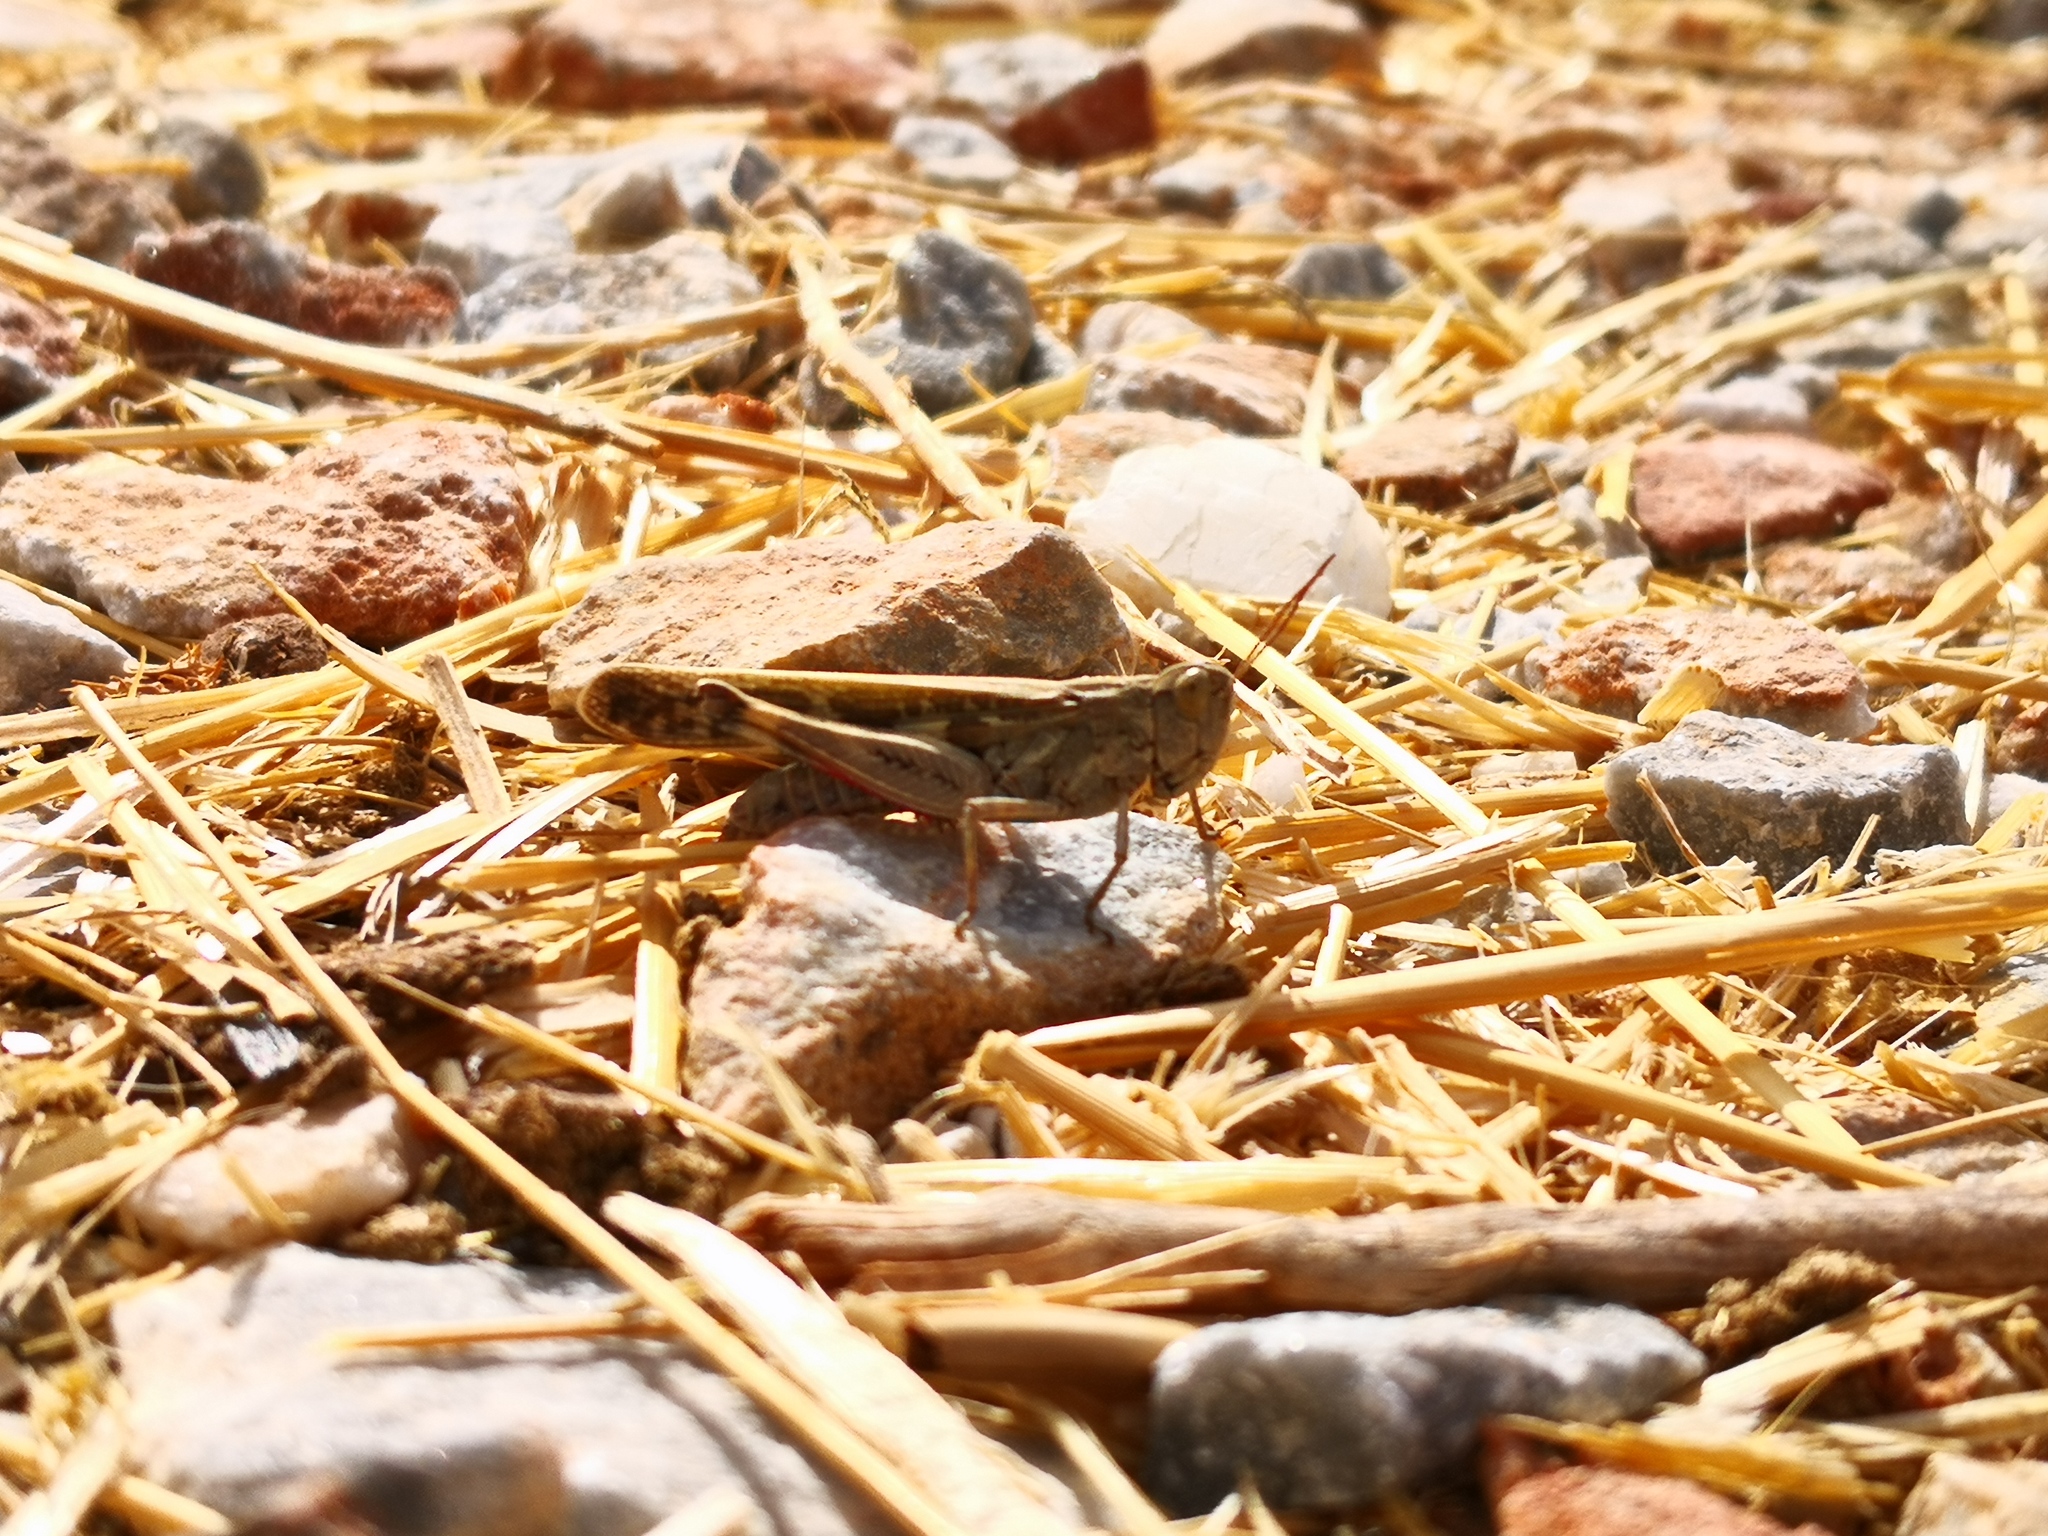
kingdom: Animalia
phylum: Arthropoda
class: Insecta
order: Orthoptera
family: Acrididae
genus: Aiolopus
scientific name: Aiolopus thalassinus
